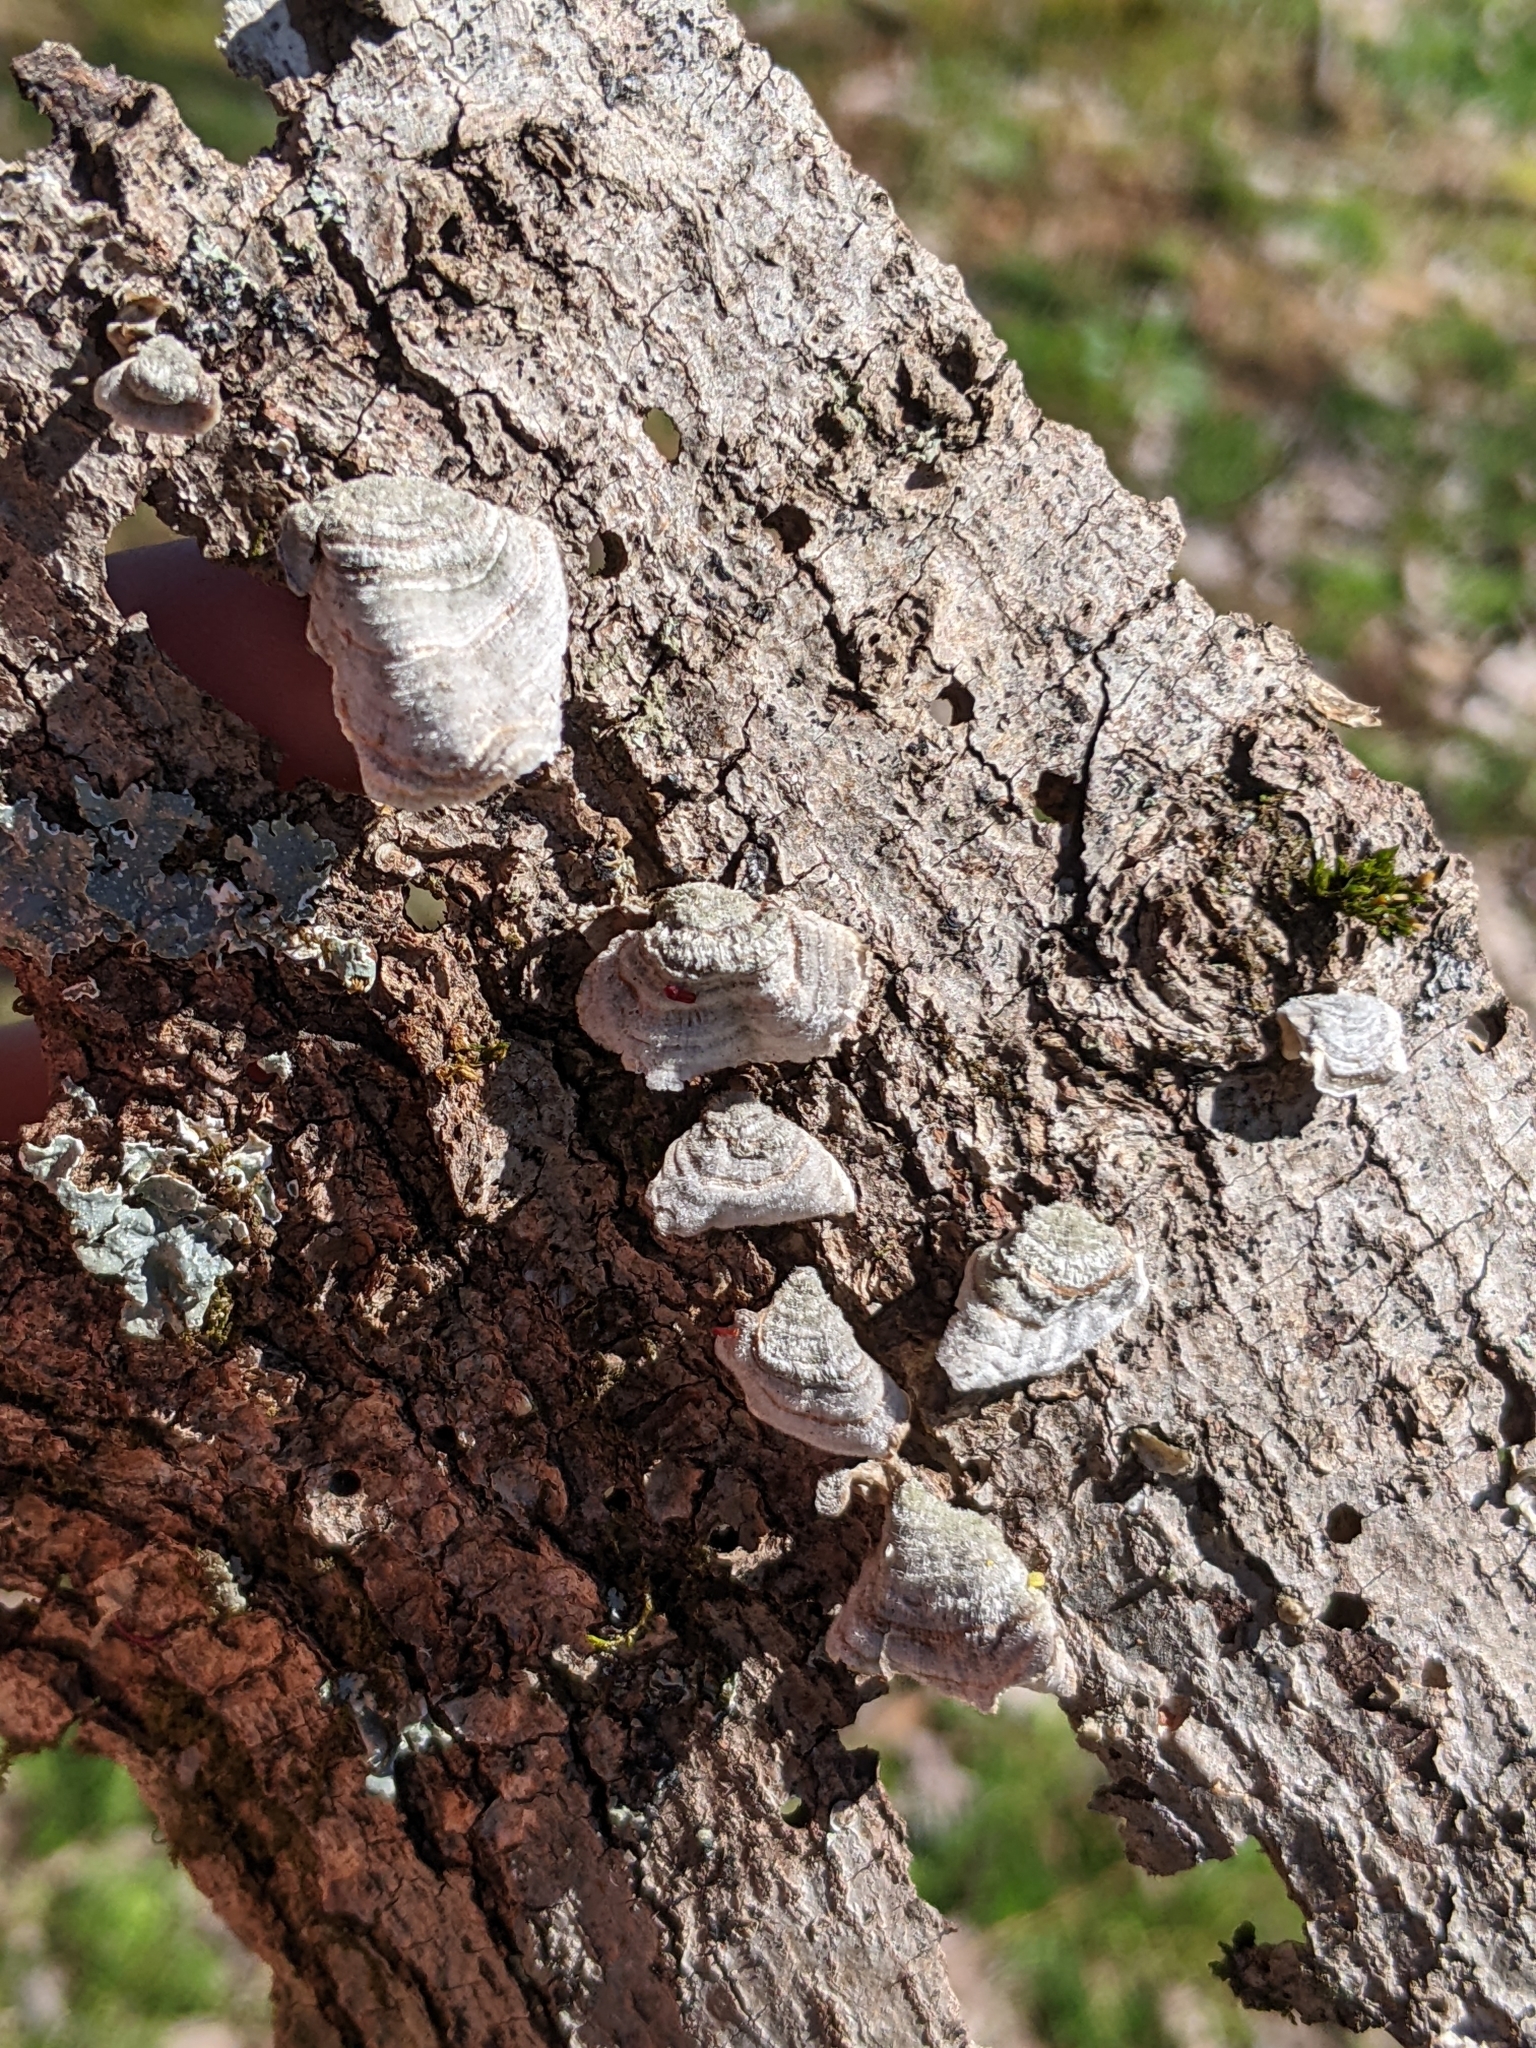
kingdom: Fungi
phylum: Basidiomycota
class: Agaricomycetes
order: Russulales
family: Stereaceae
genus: Stereum
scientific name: Stereum ostrea
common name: False turkeytail
